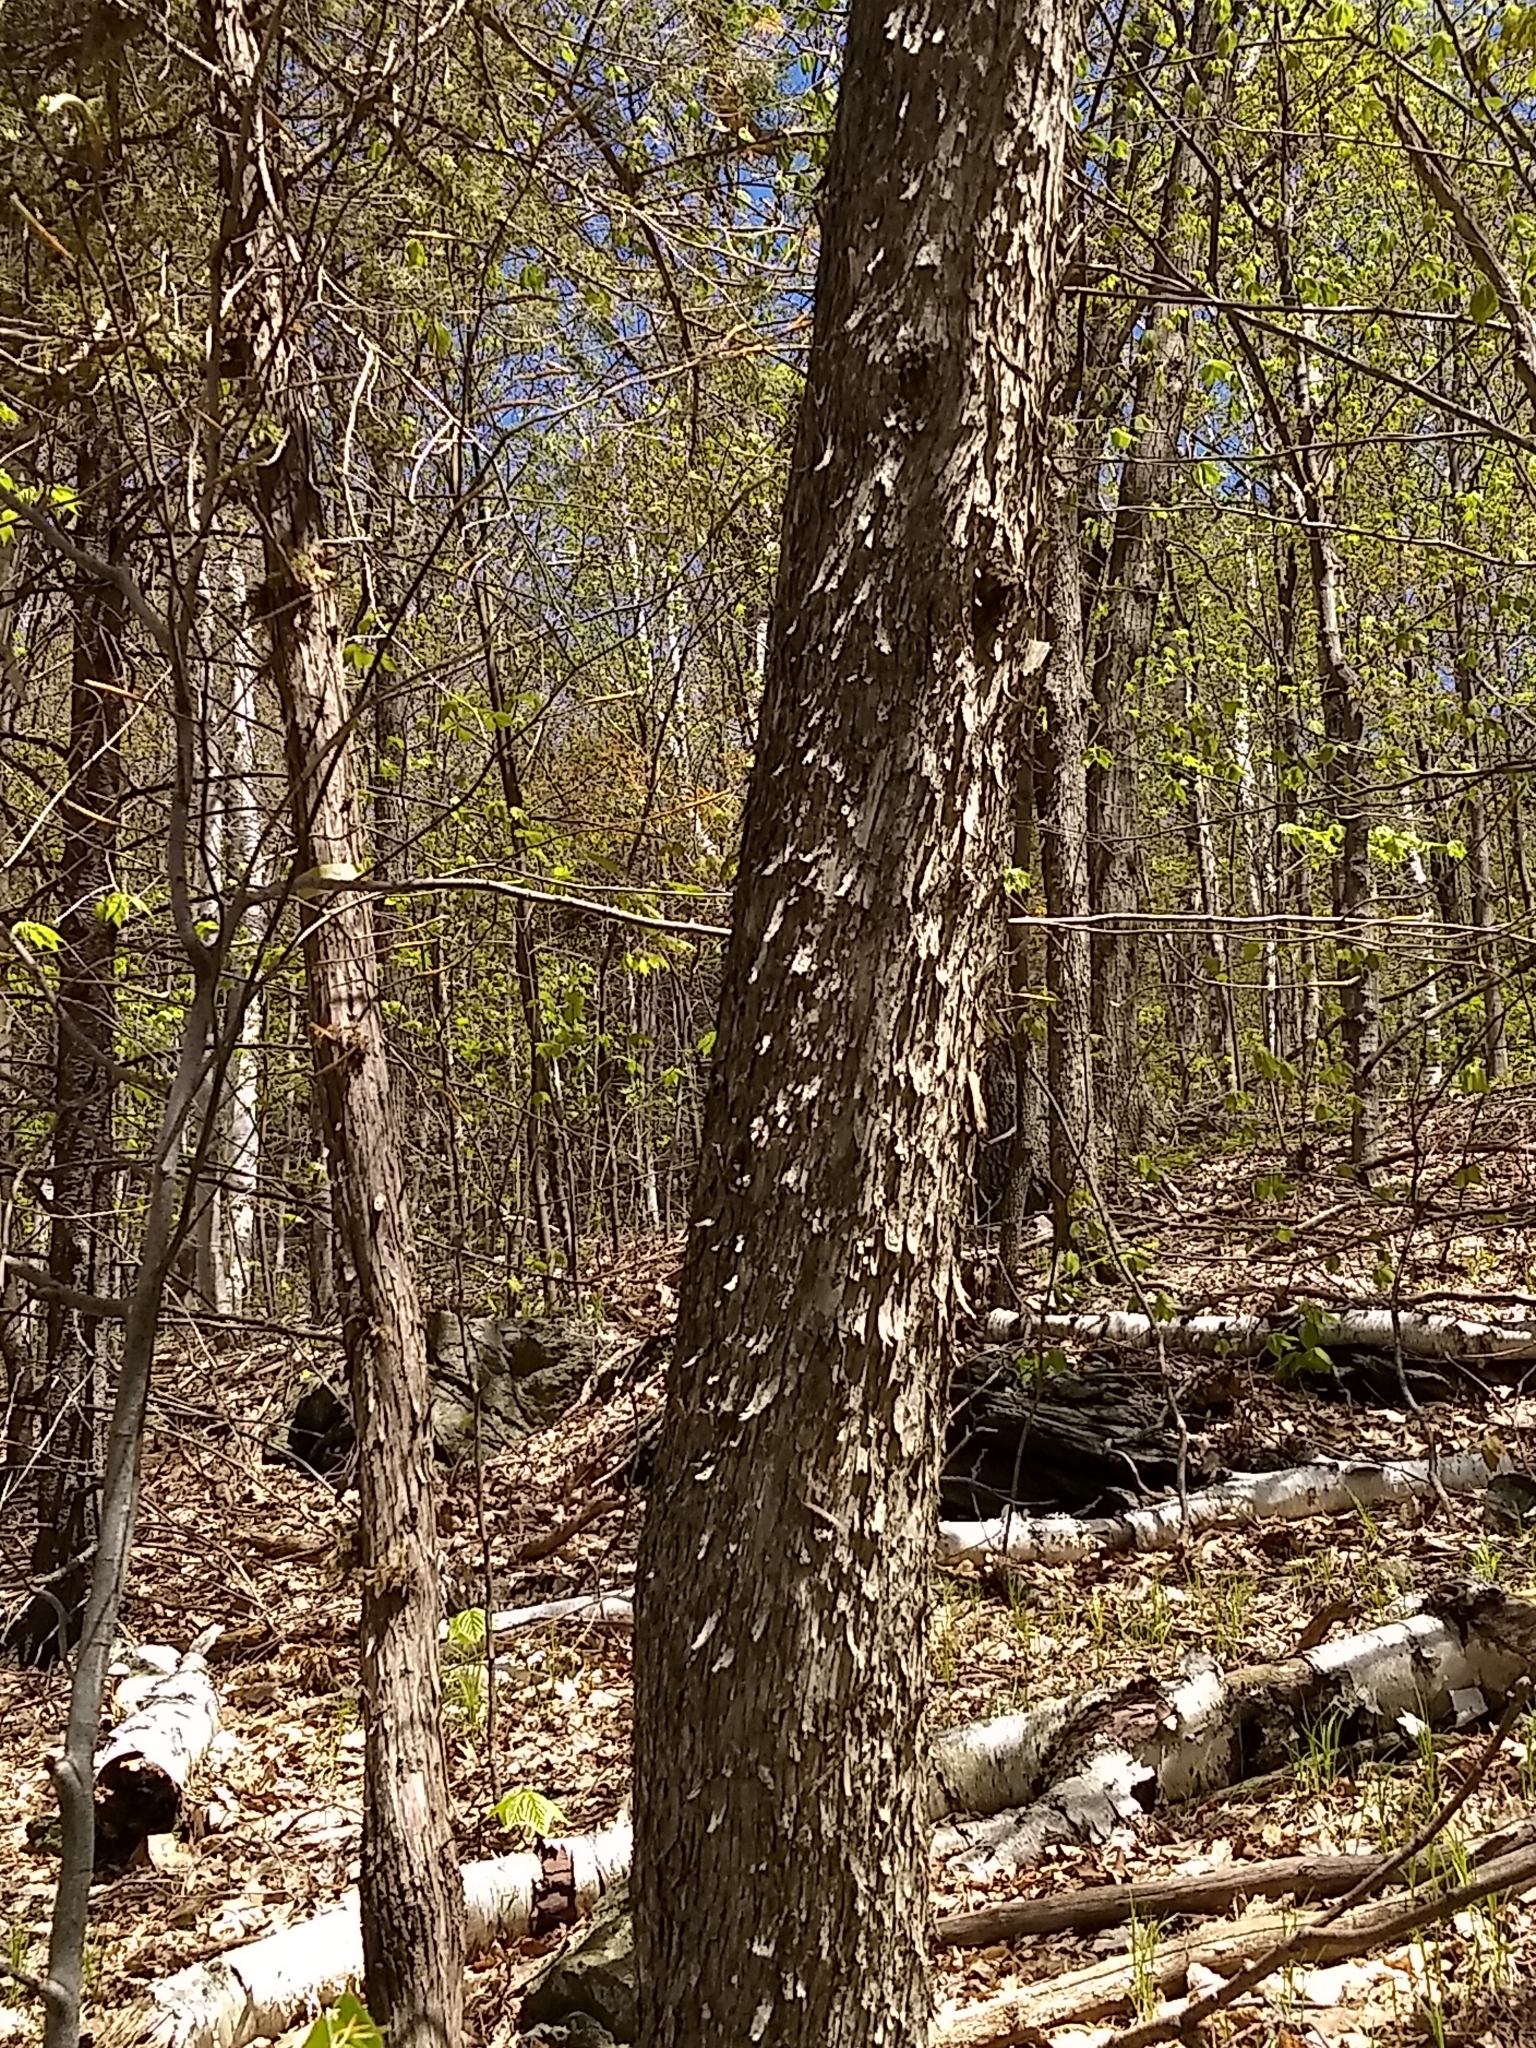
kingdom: Plantae
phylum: Tracheophyta
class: Magnoliopsida
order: Fagales
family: Betulaceae
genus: Ostrya
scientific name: Ostrya virginiana
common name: Ironwood
